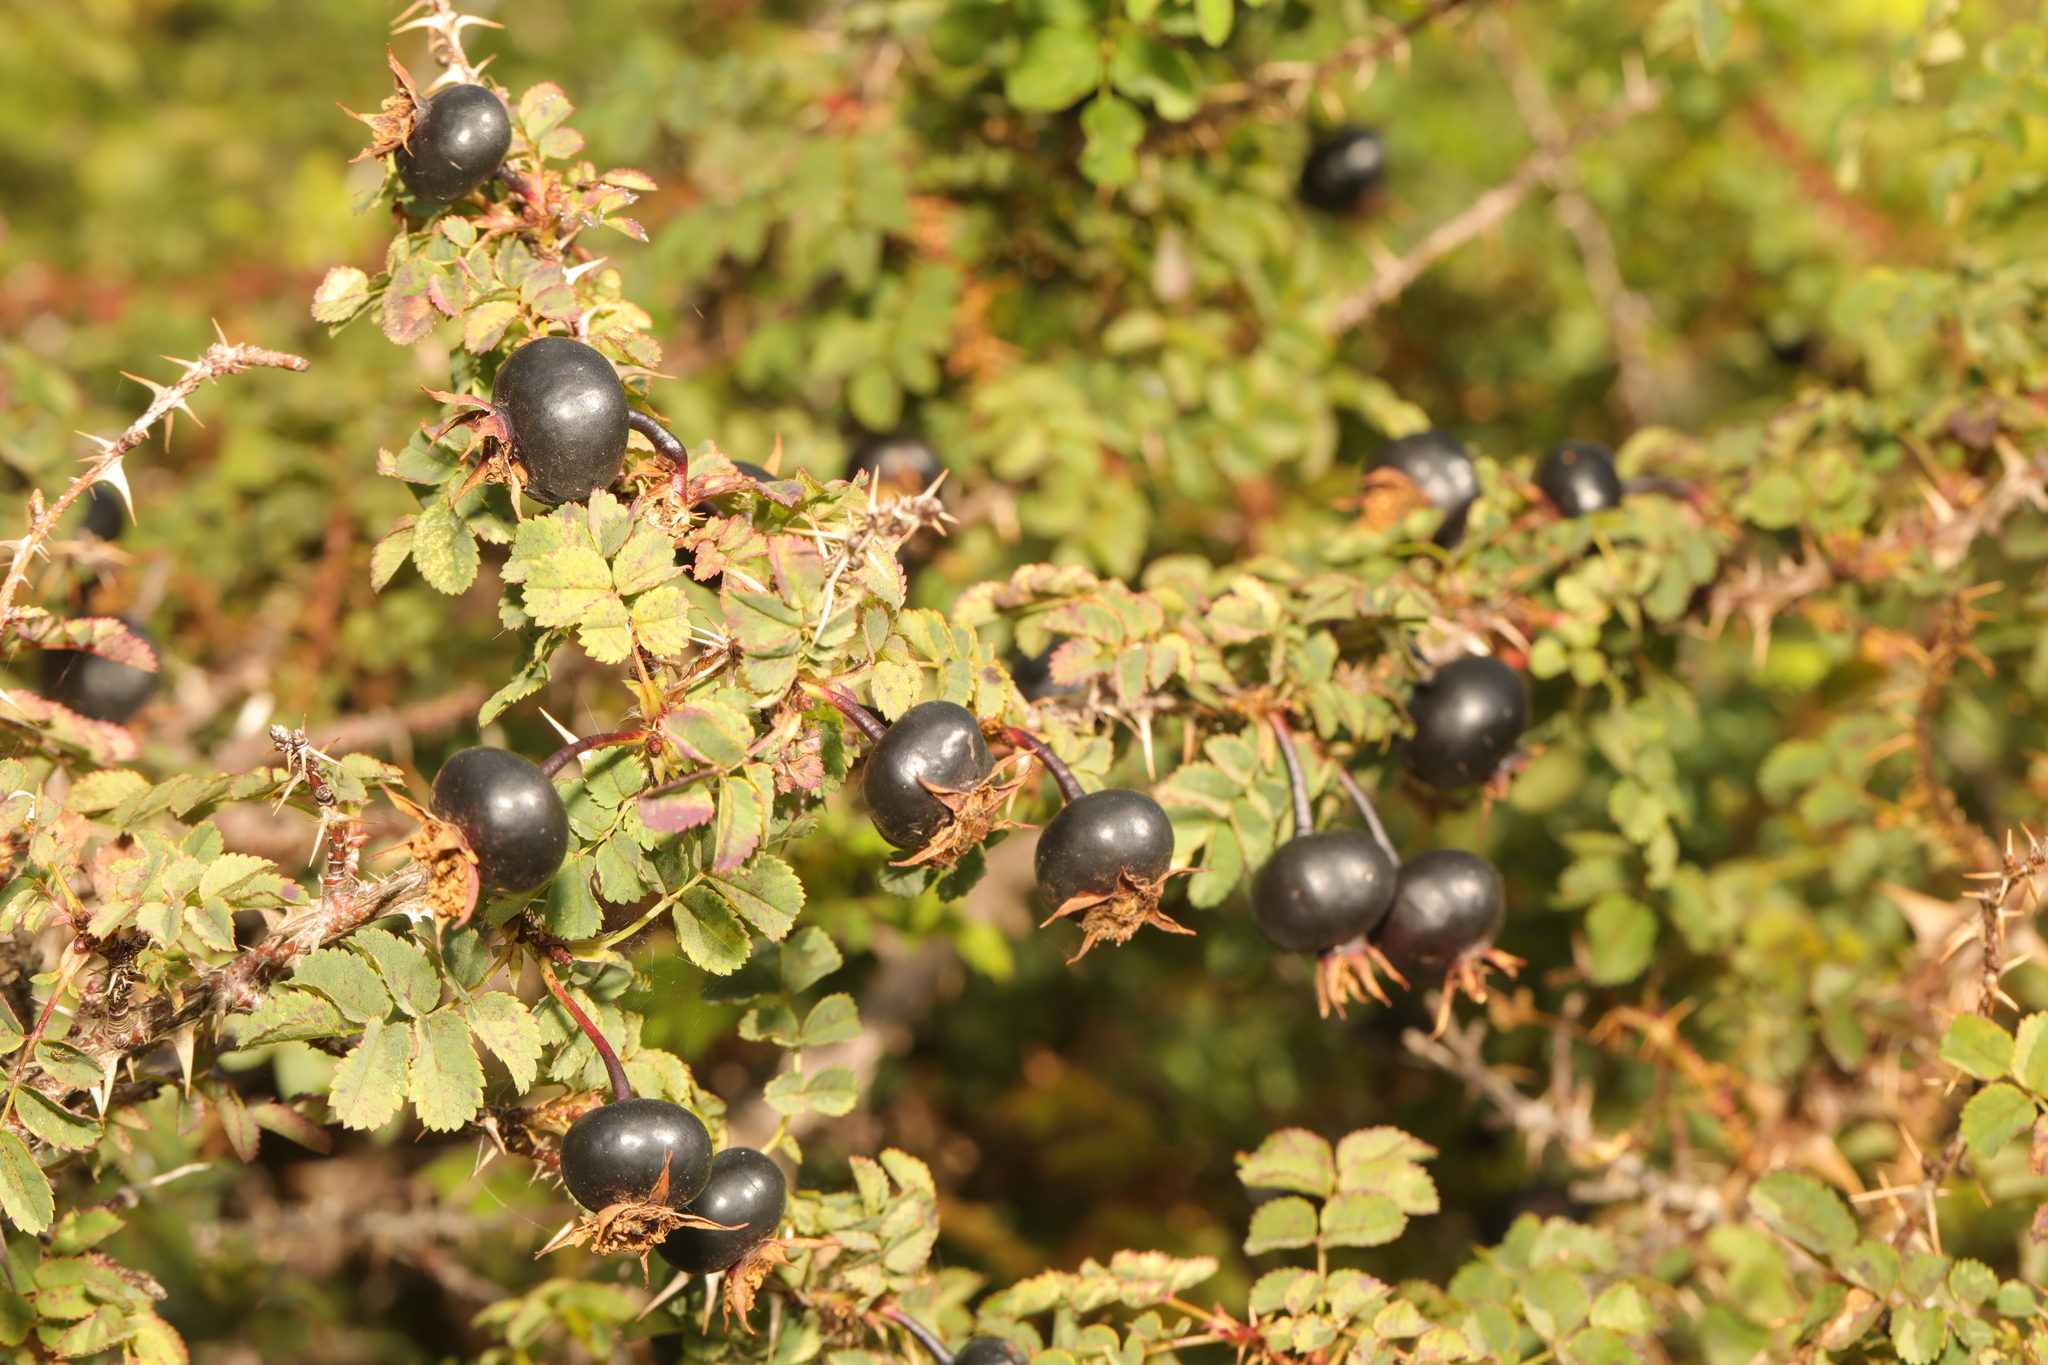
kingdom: Plantae
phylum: Tracheophyta
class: Magnoliopsida
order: Rosales
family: Rosaceae
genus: Rosa
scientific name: Rosa spinosissima
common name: Burnet rose
